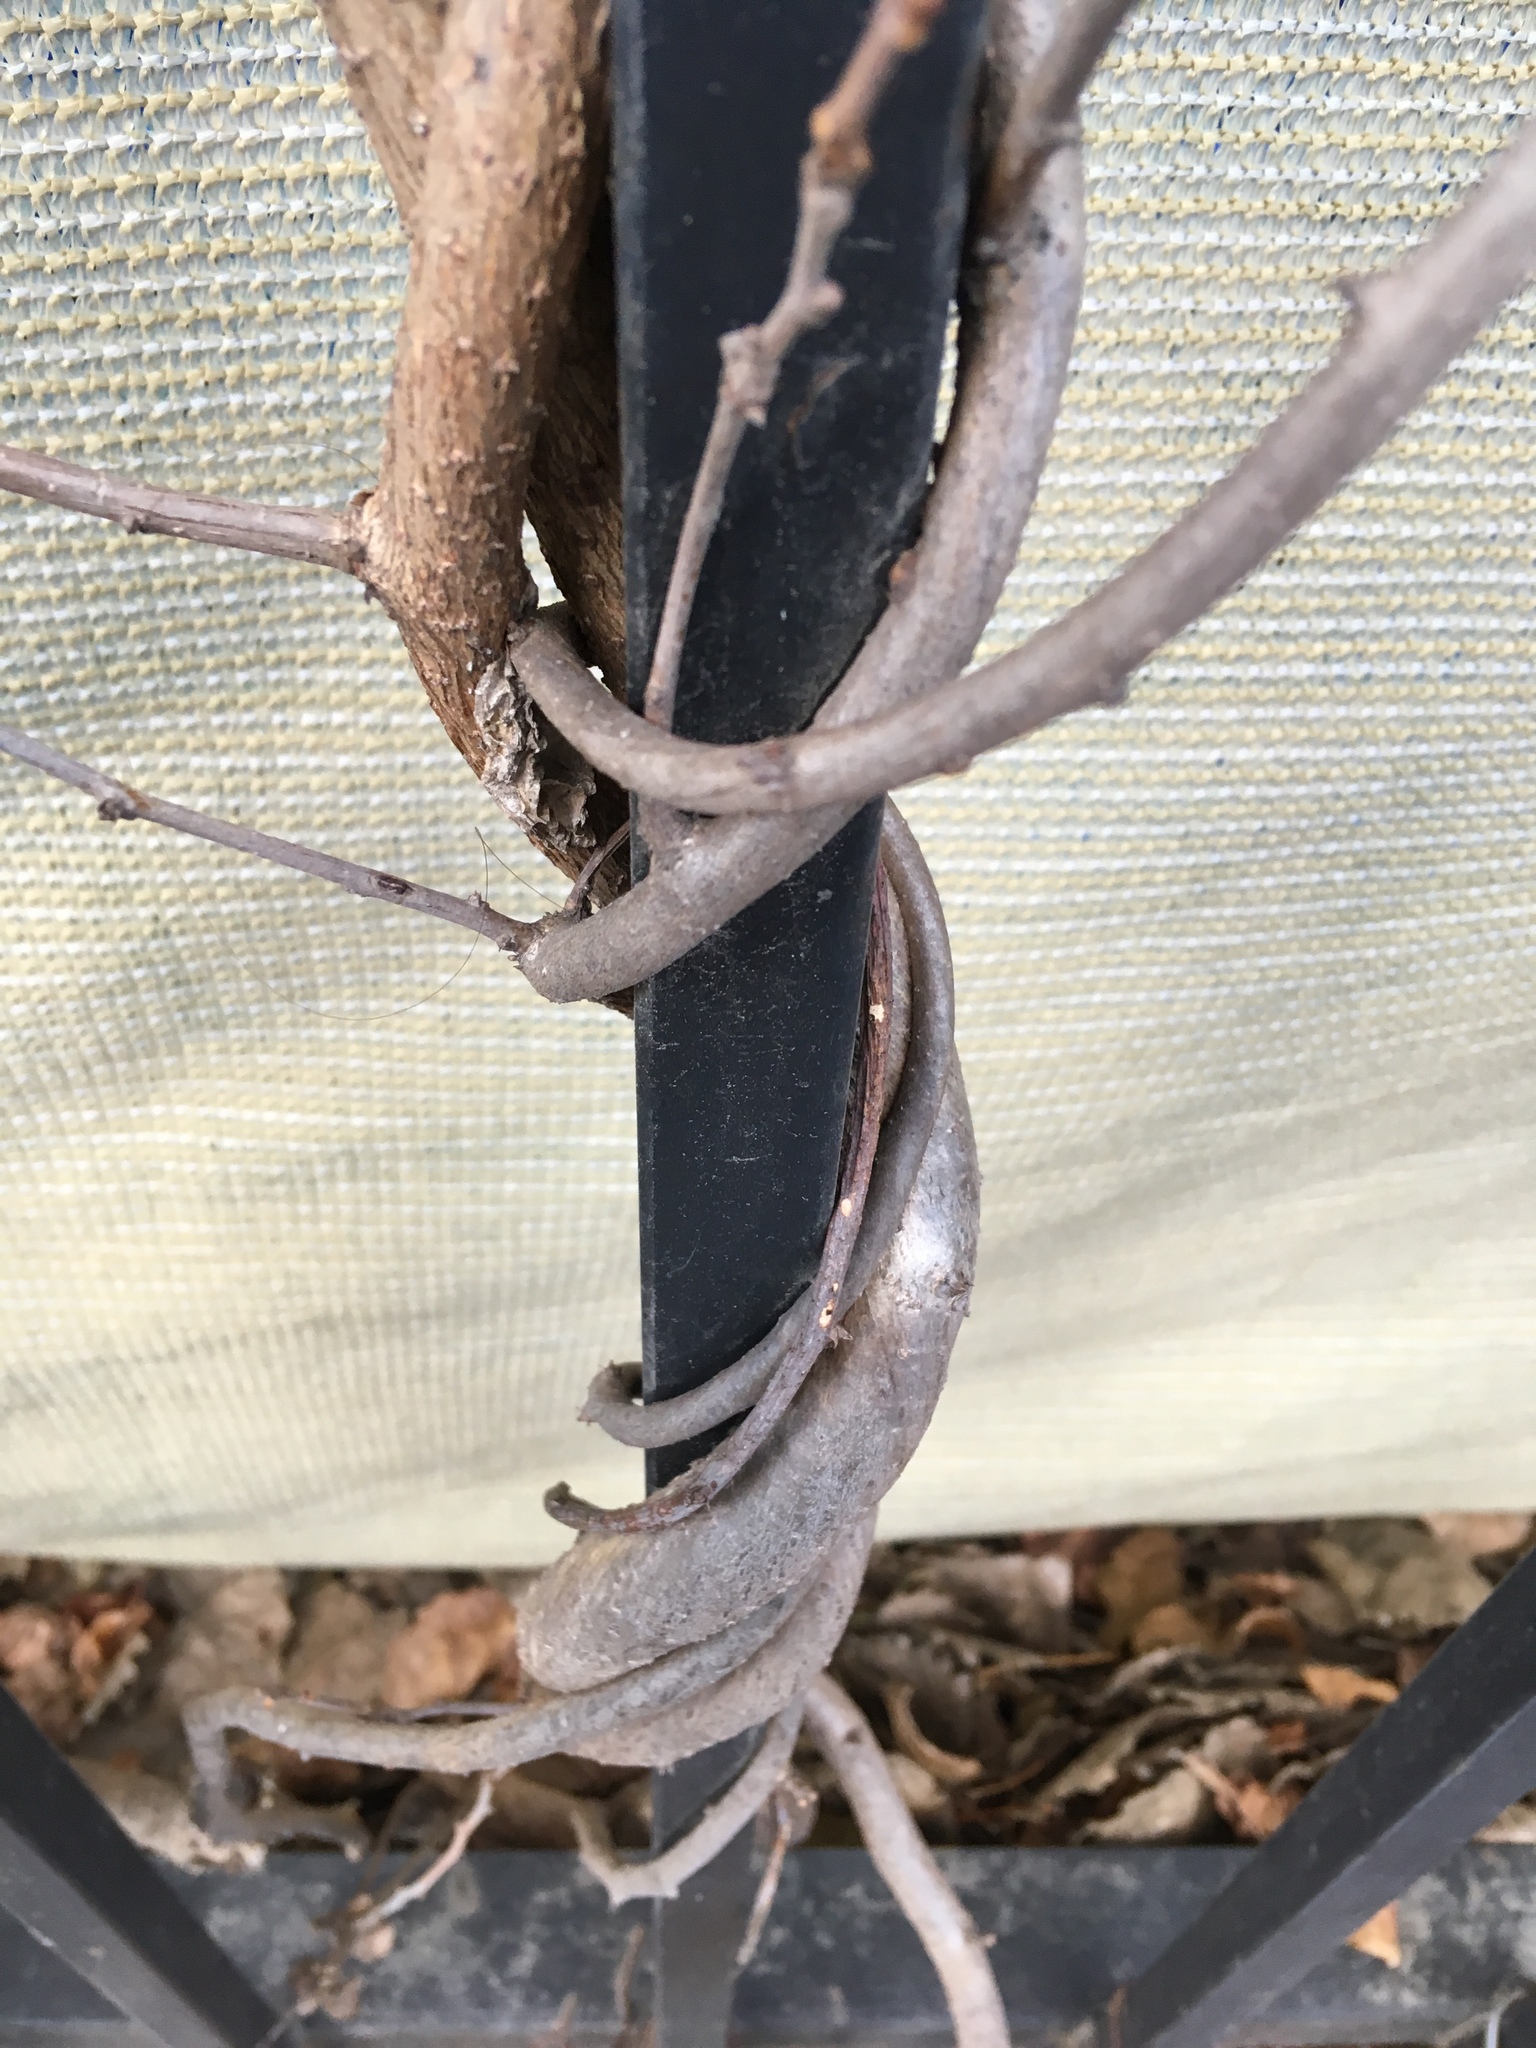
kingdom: Plantae
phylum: Tracheophyta
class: Magnoliopsida
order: Celastrales
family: Celastraceae
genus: Celastrus
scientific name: Celastrus orbiculatus
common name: Oriental bittersweet
